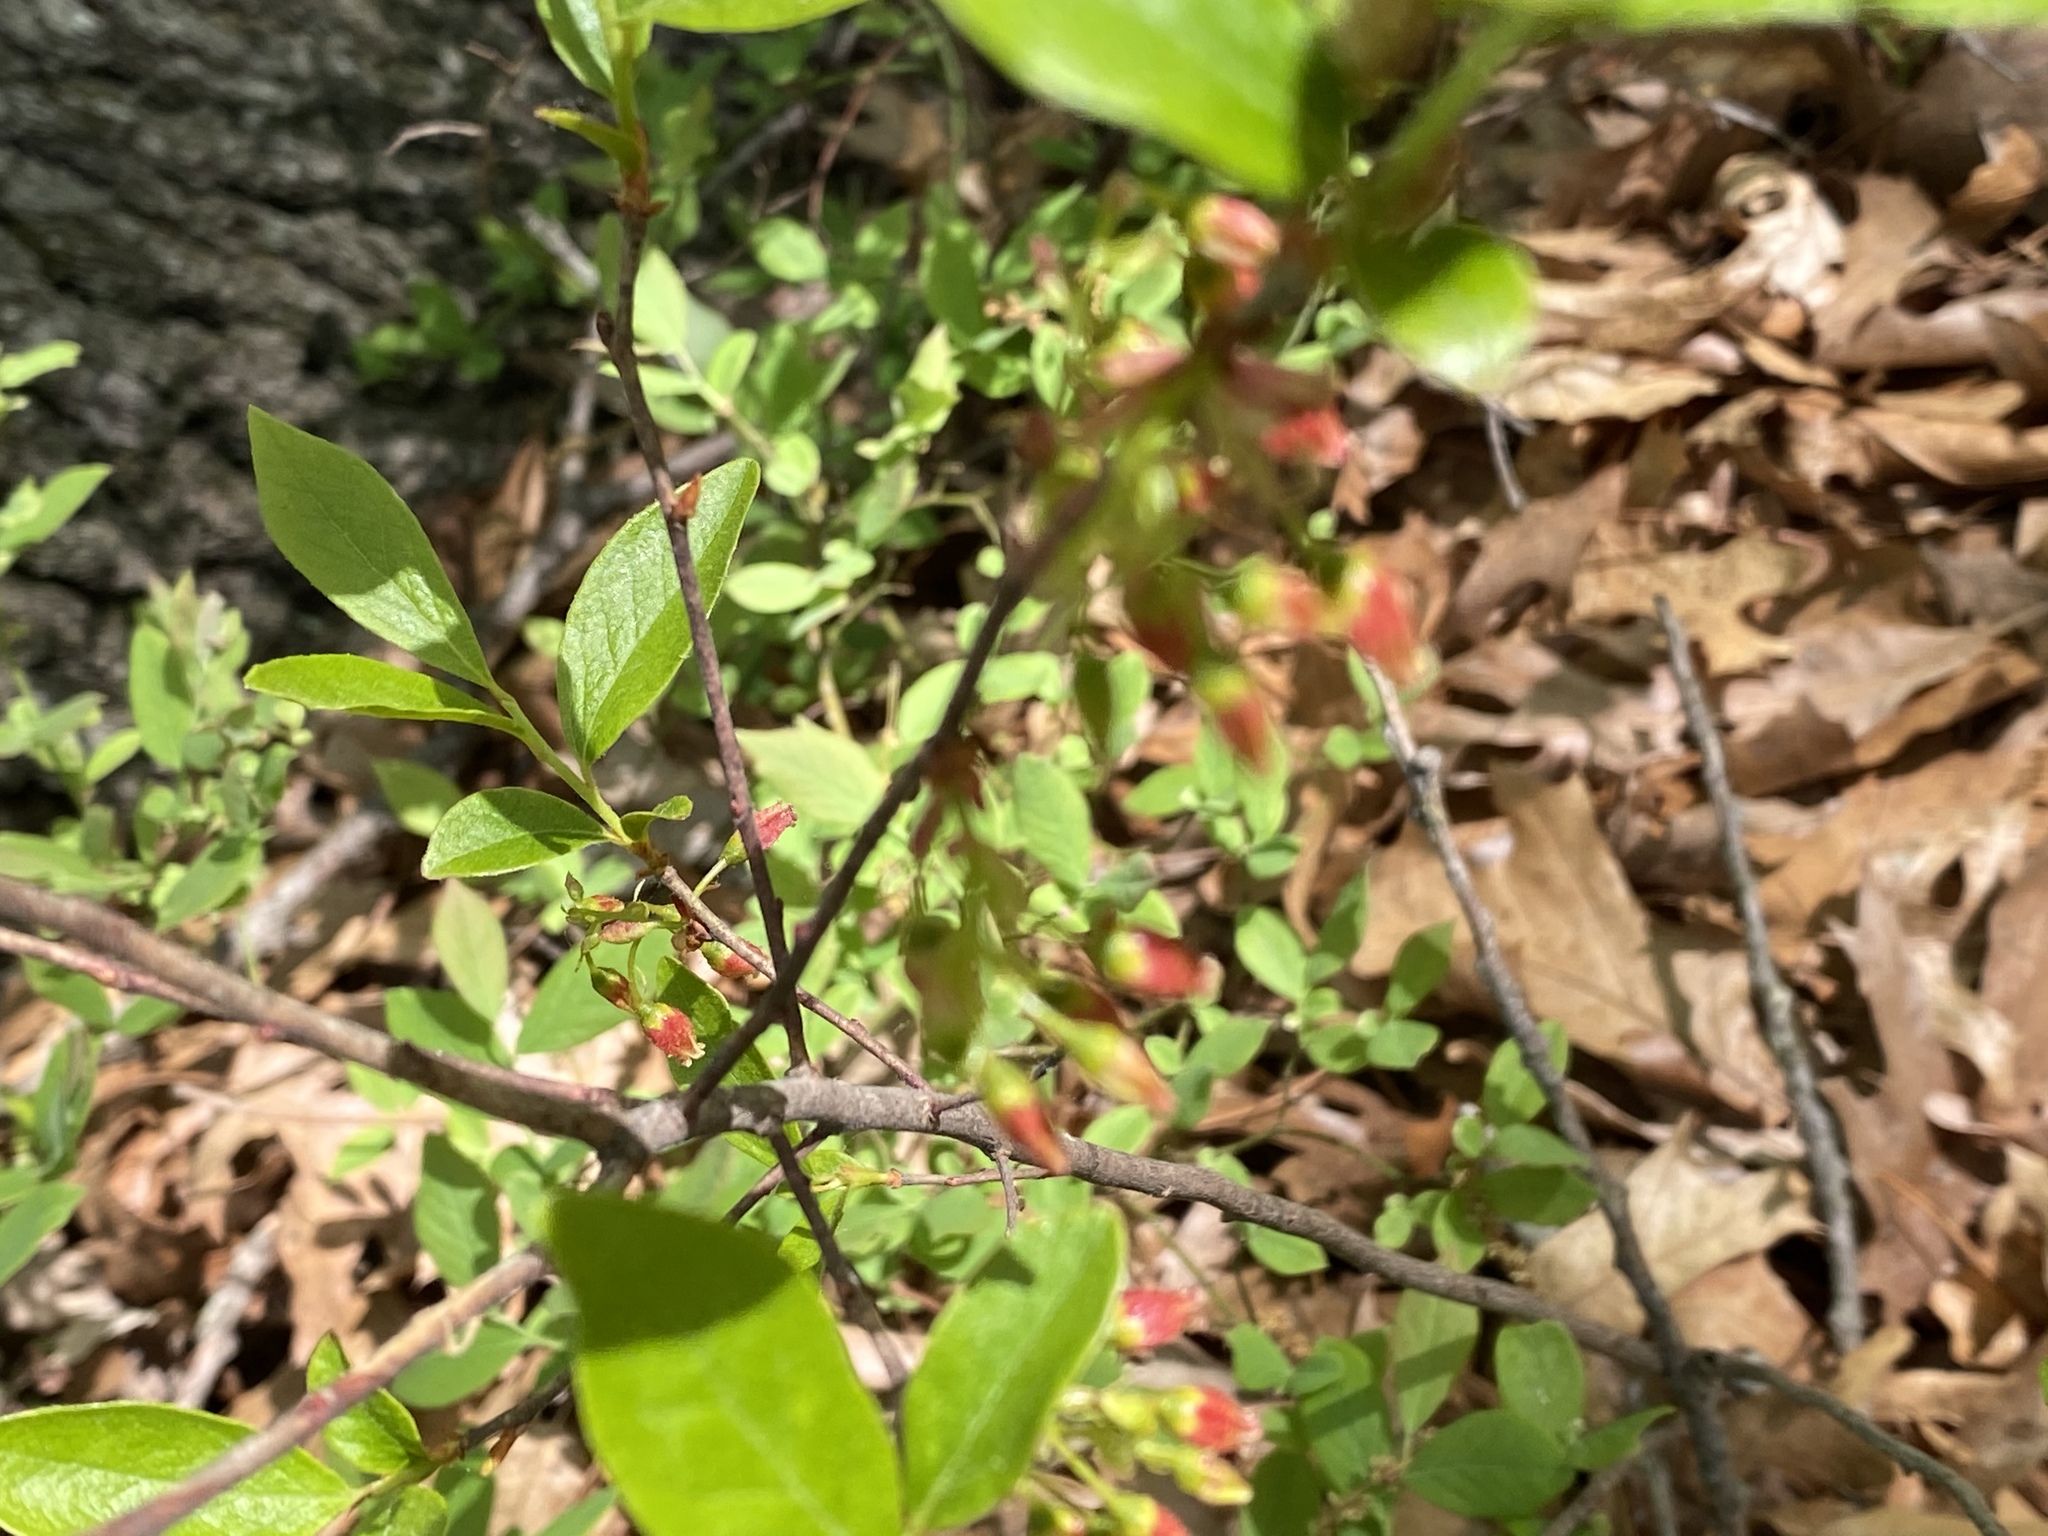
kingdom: Plantae
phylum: Tracheophyta
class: Magnoliopsida
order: Ericales
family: Ericaceae
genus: Gaylussacia
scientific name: Gaylussacia baccata
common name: Black huckleberry
